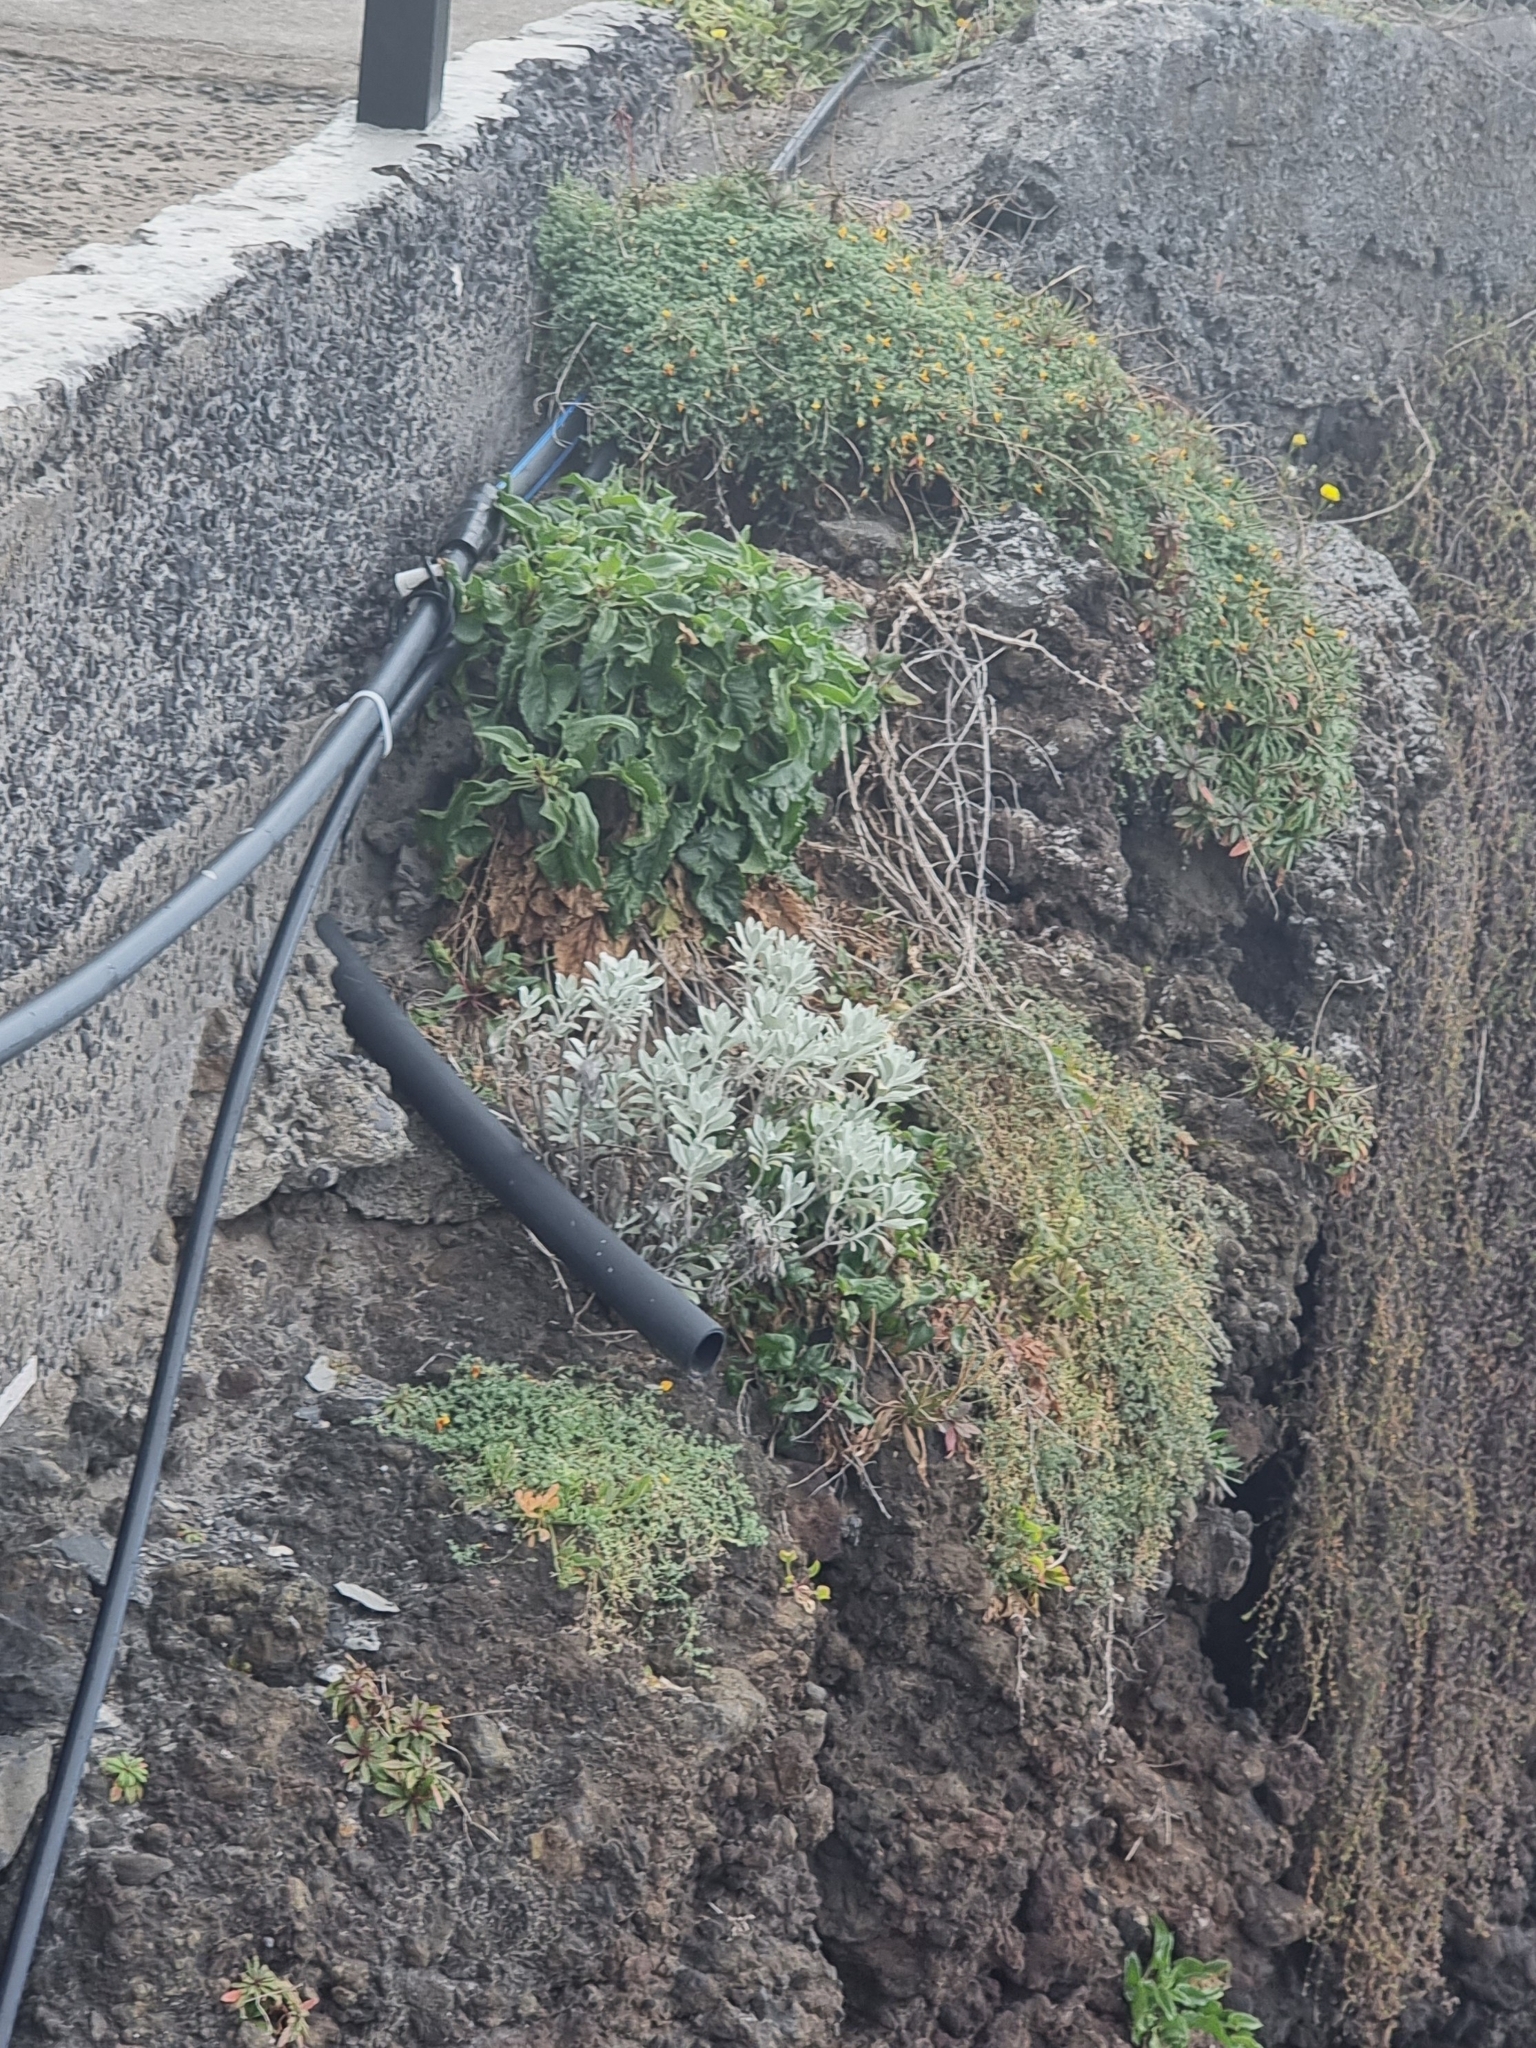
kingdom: Plantae
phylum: Tracheophyta
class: Magnoliopsida
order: Asterales
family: Asteraceae
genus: Helichrysum
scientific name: Helichrysum obconicum
